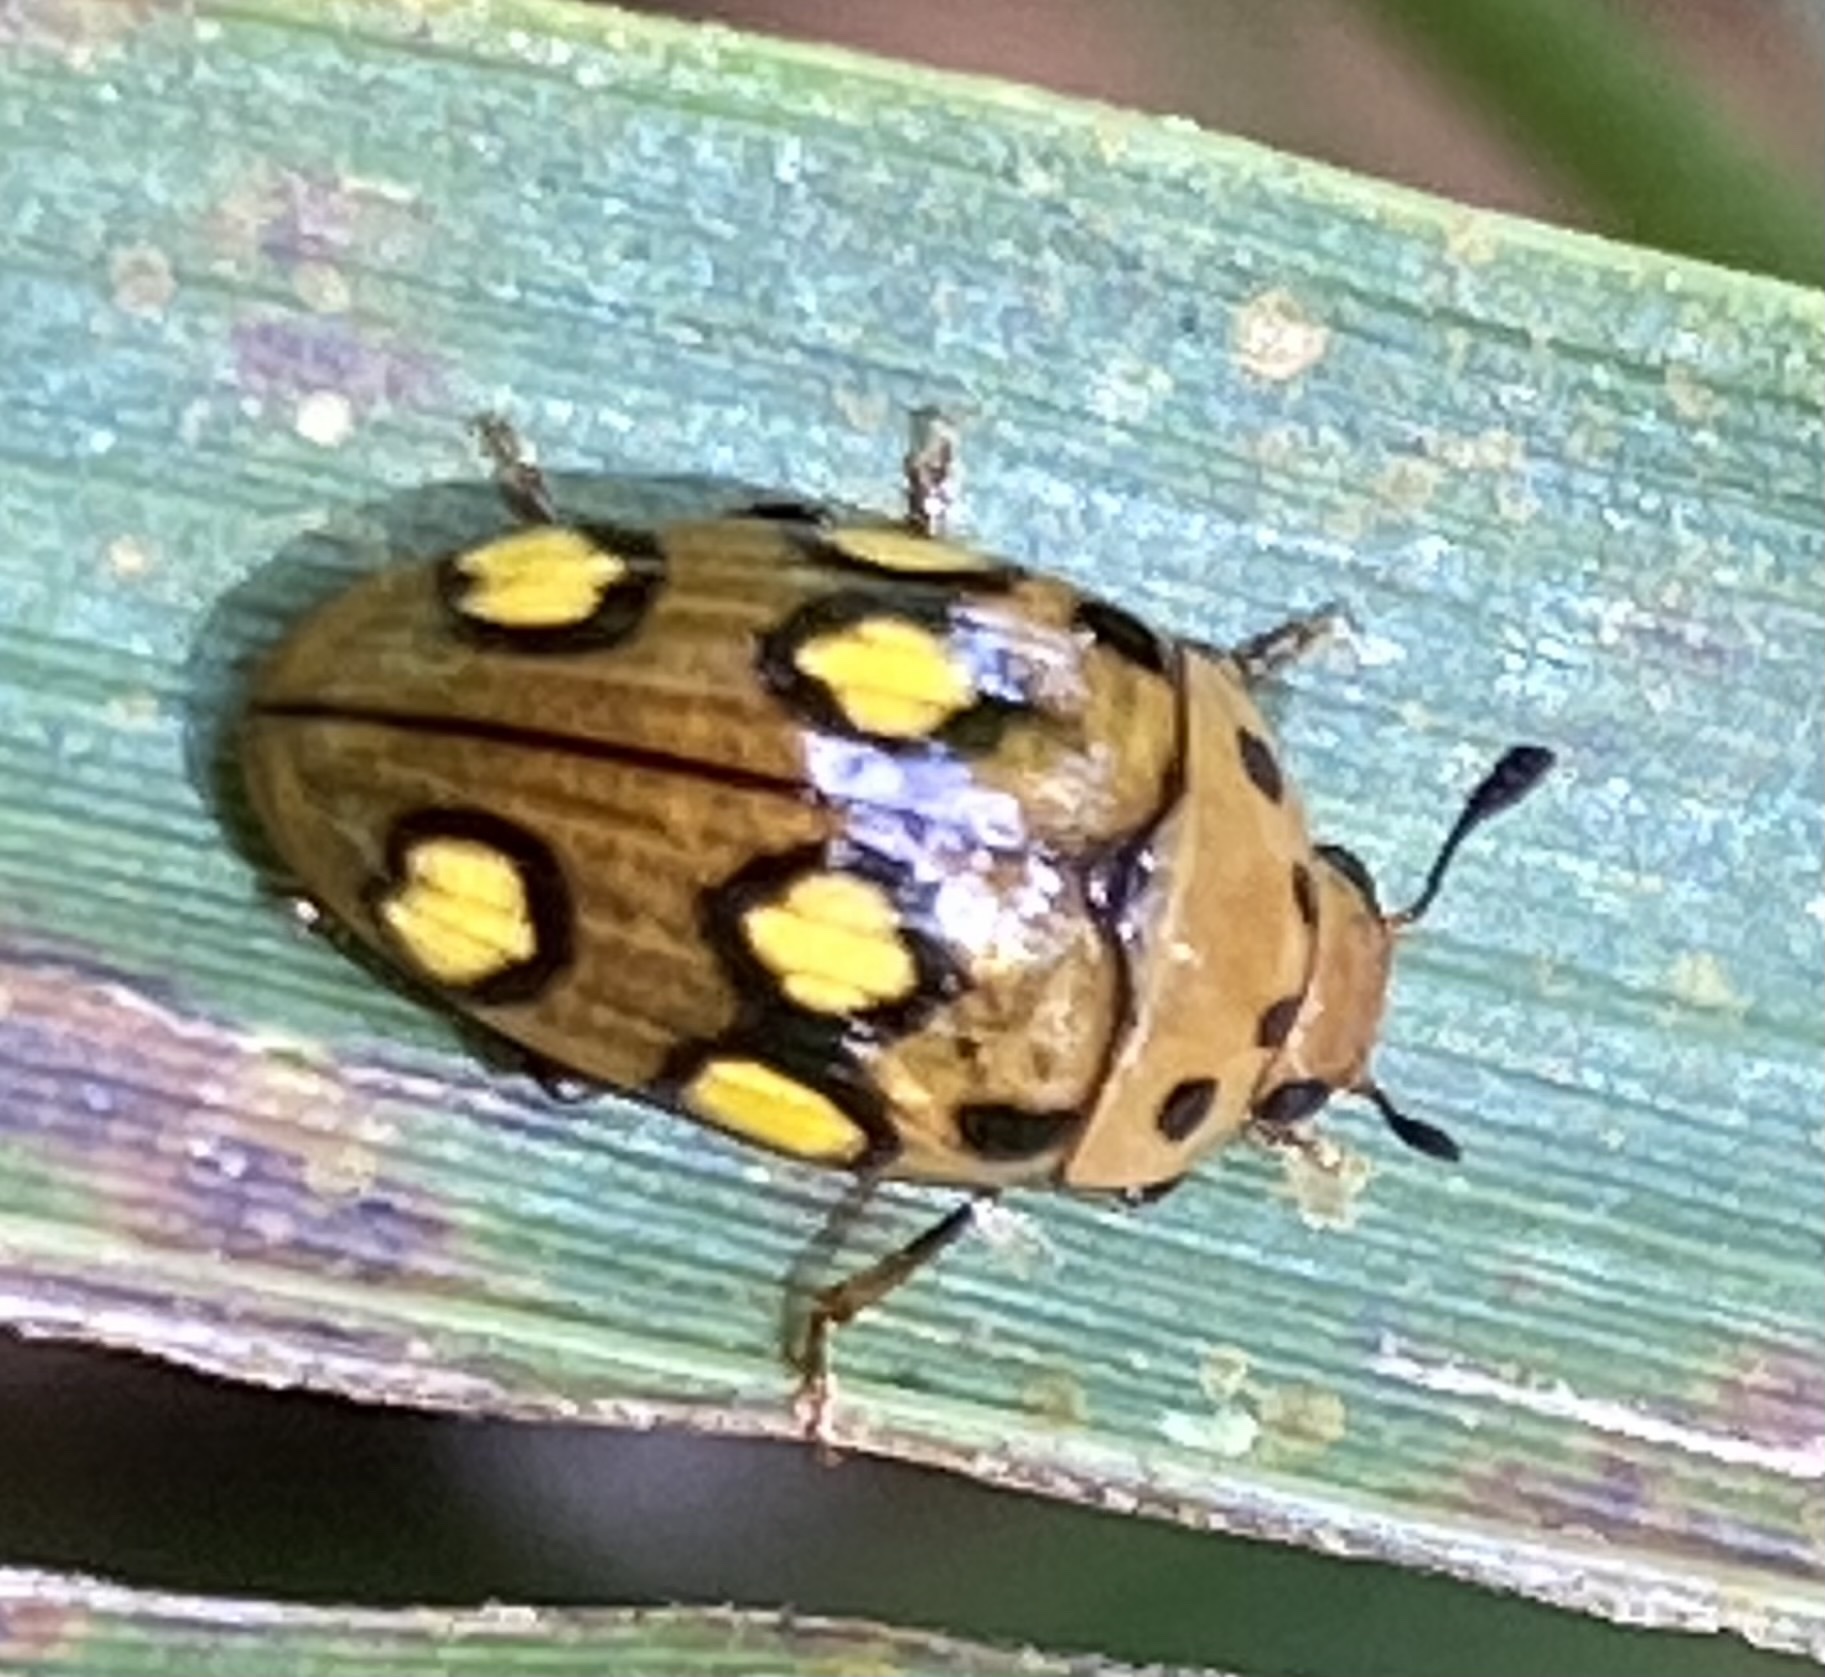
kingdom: Animalia
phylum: Arthropoda
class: Insecta
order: Coleoptera
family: Erotylidae
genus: Mycotretus
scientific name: Mycotretus sexoculatus
